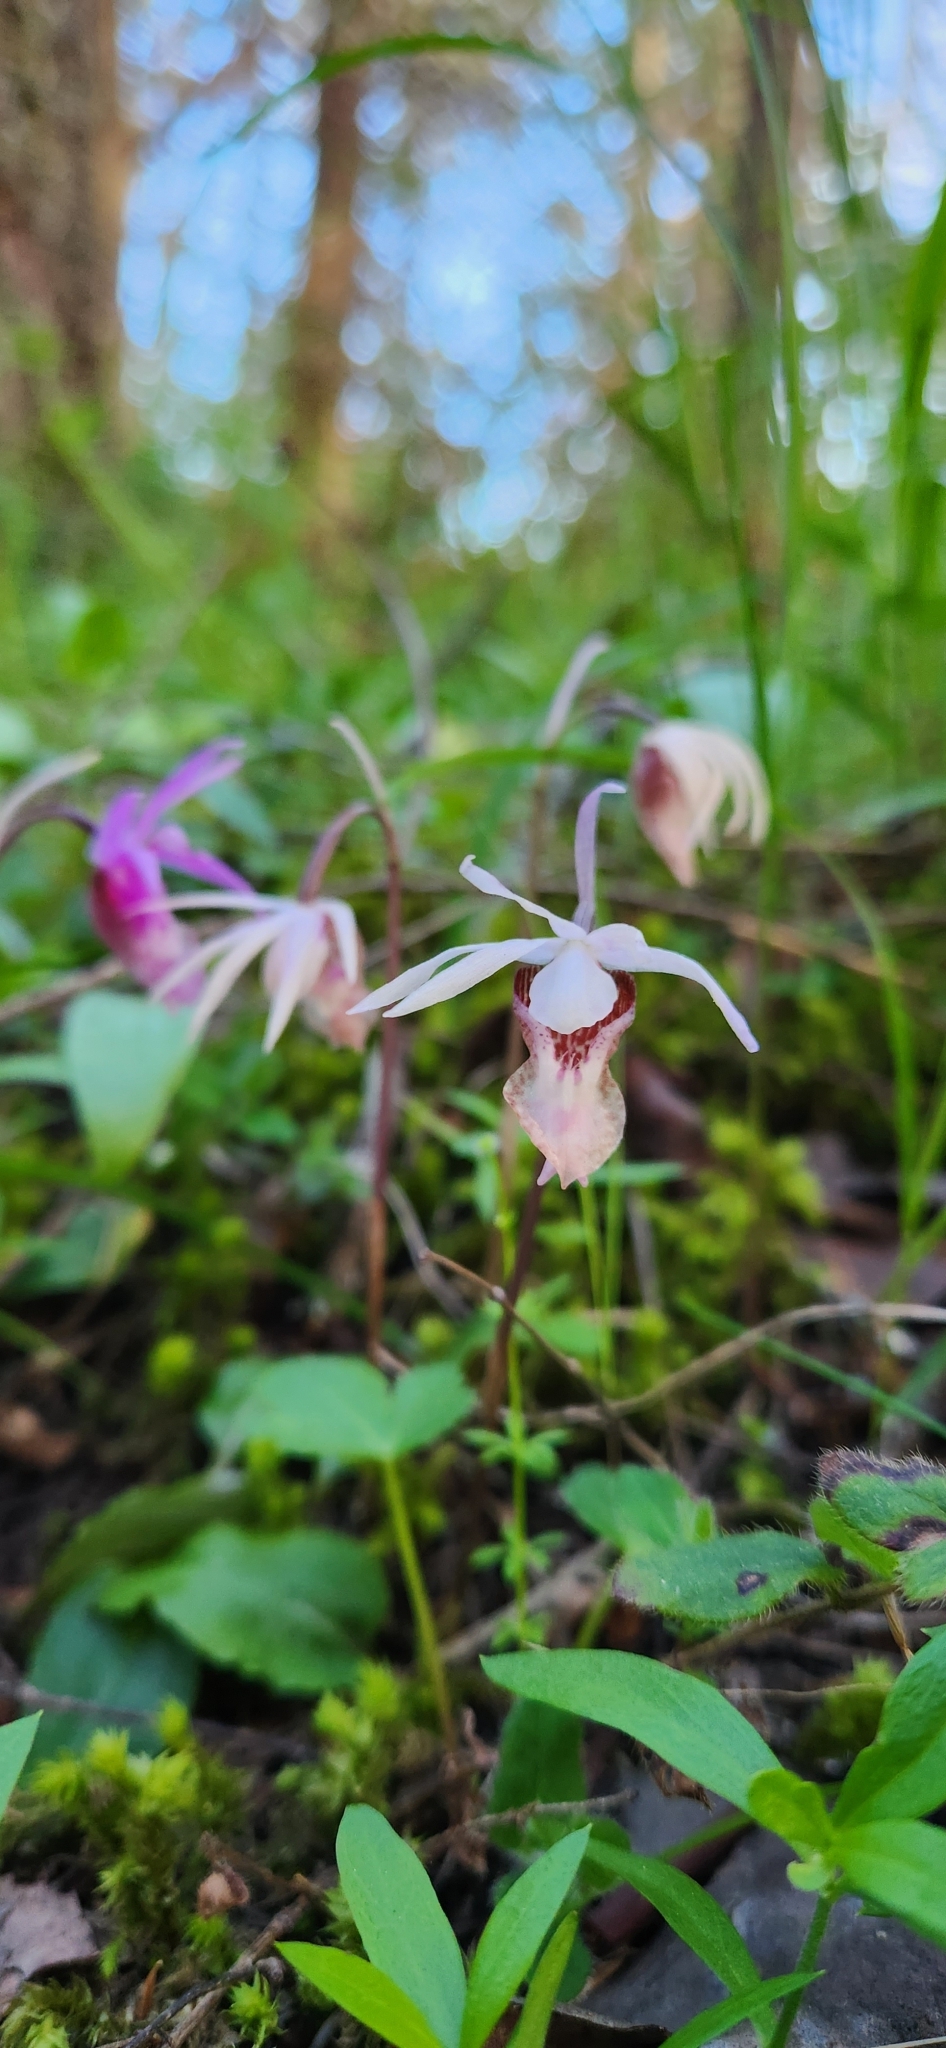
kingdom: Plantae
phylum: Tracheophyta
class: Liliopsida
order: Asparagales
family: Orchidaceae
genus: Calypso
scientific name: Calypso bulbosa
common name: Calypso
